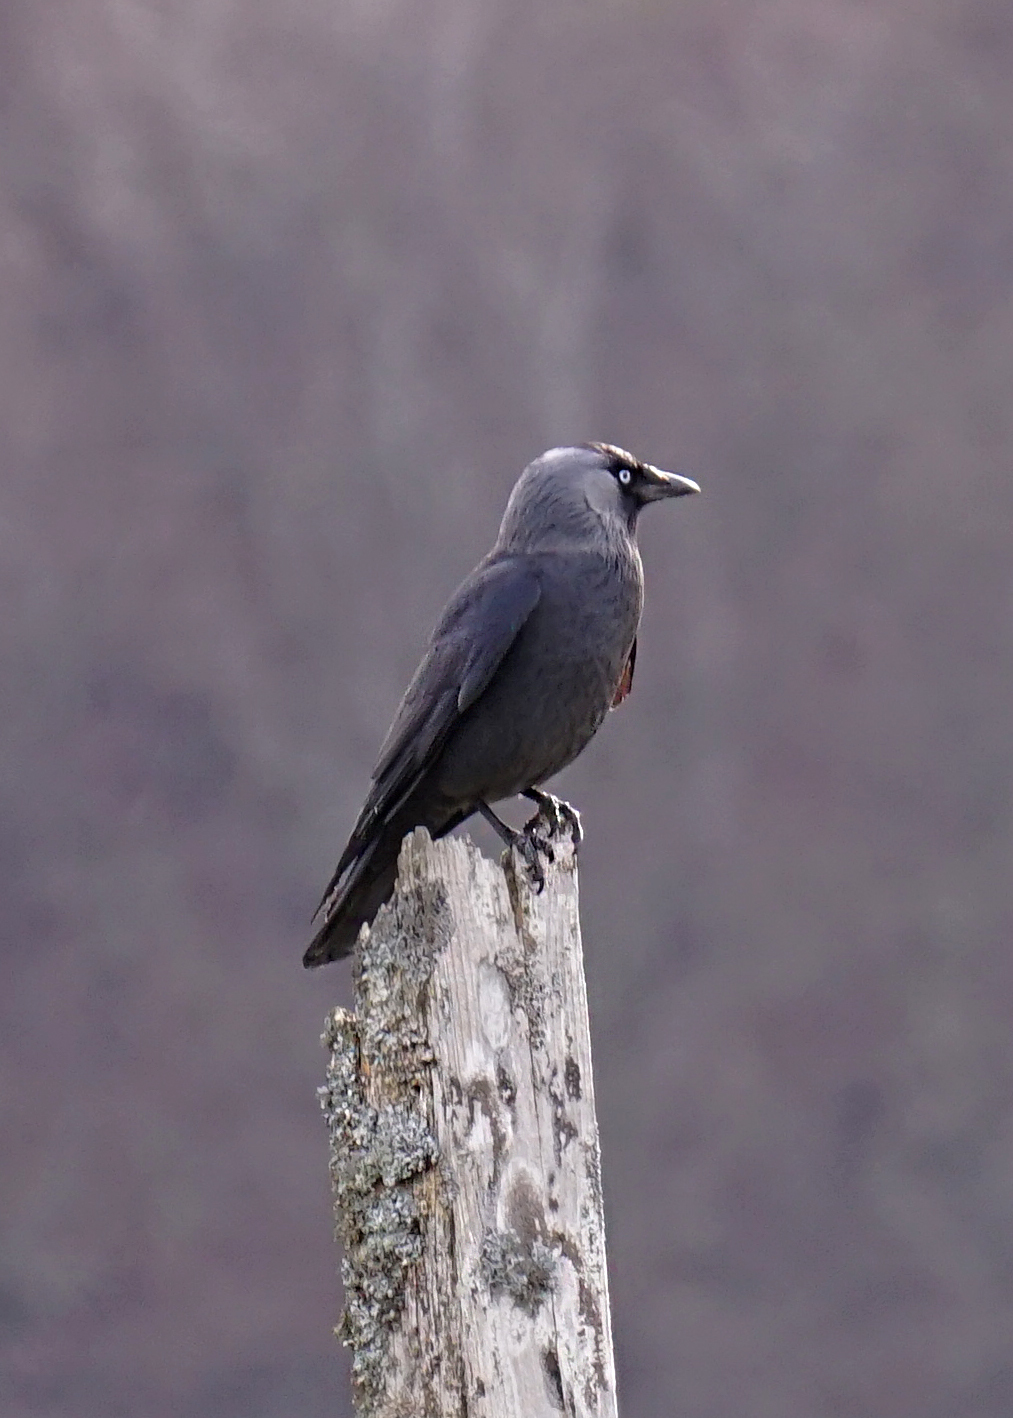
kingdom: Animalia
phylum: Chordata
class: Aves
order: Passeriformes
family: Corvidae
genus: Coloeus
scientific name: Coloeus monedula
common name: Western jackdaw
